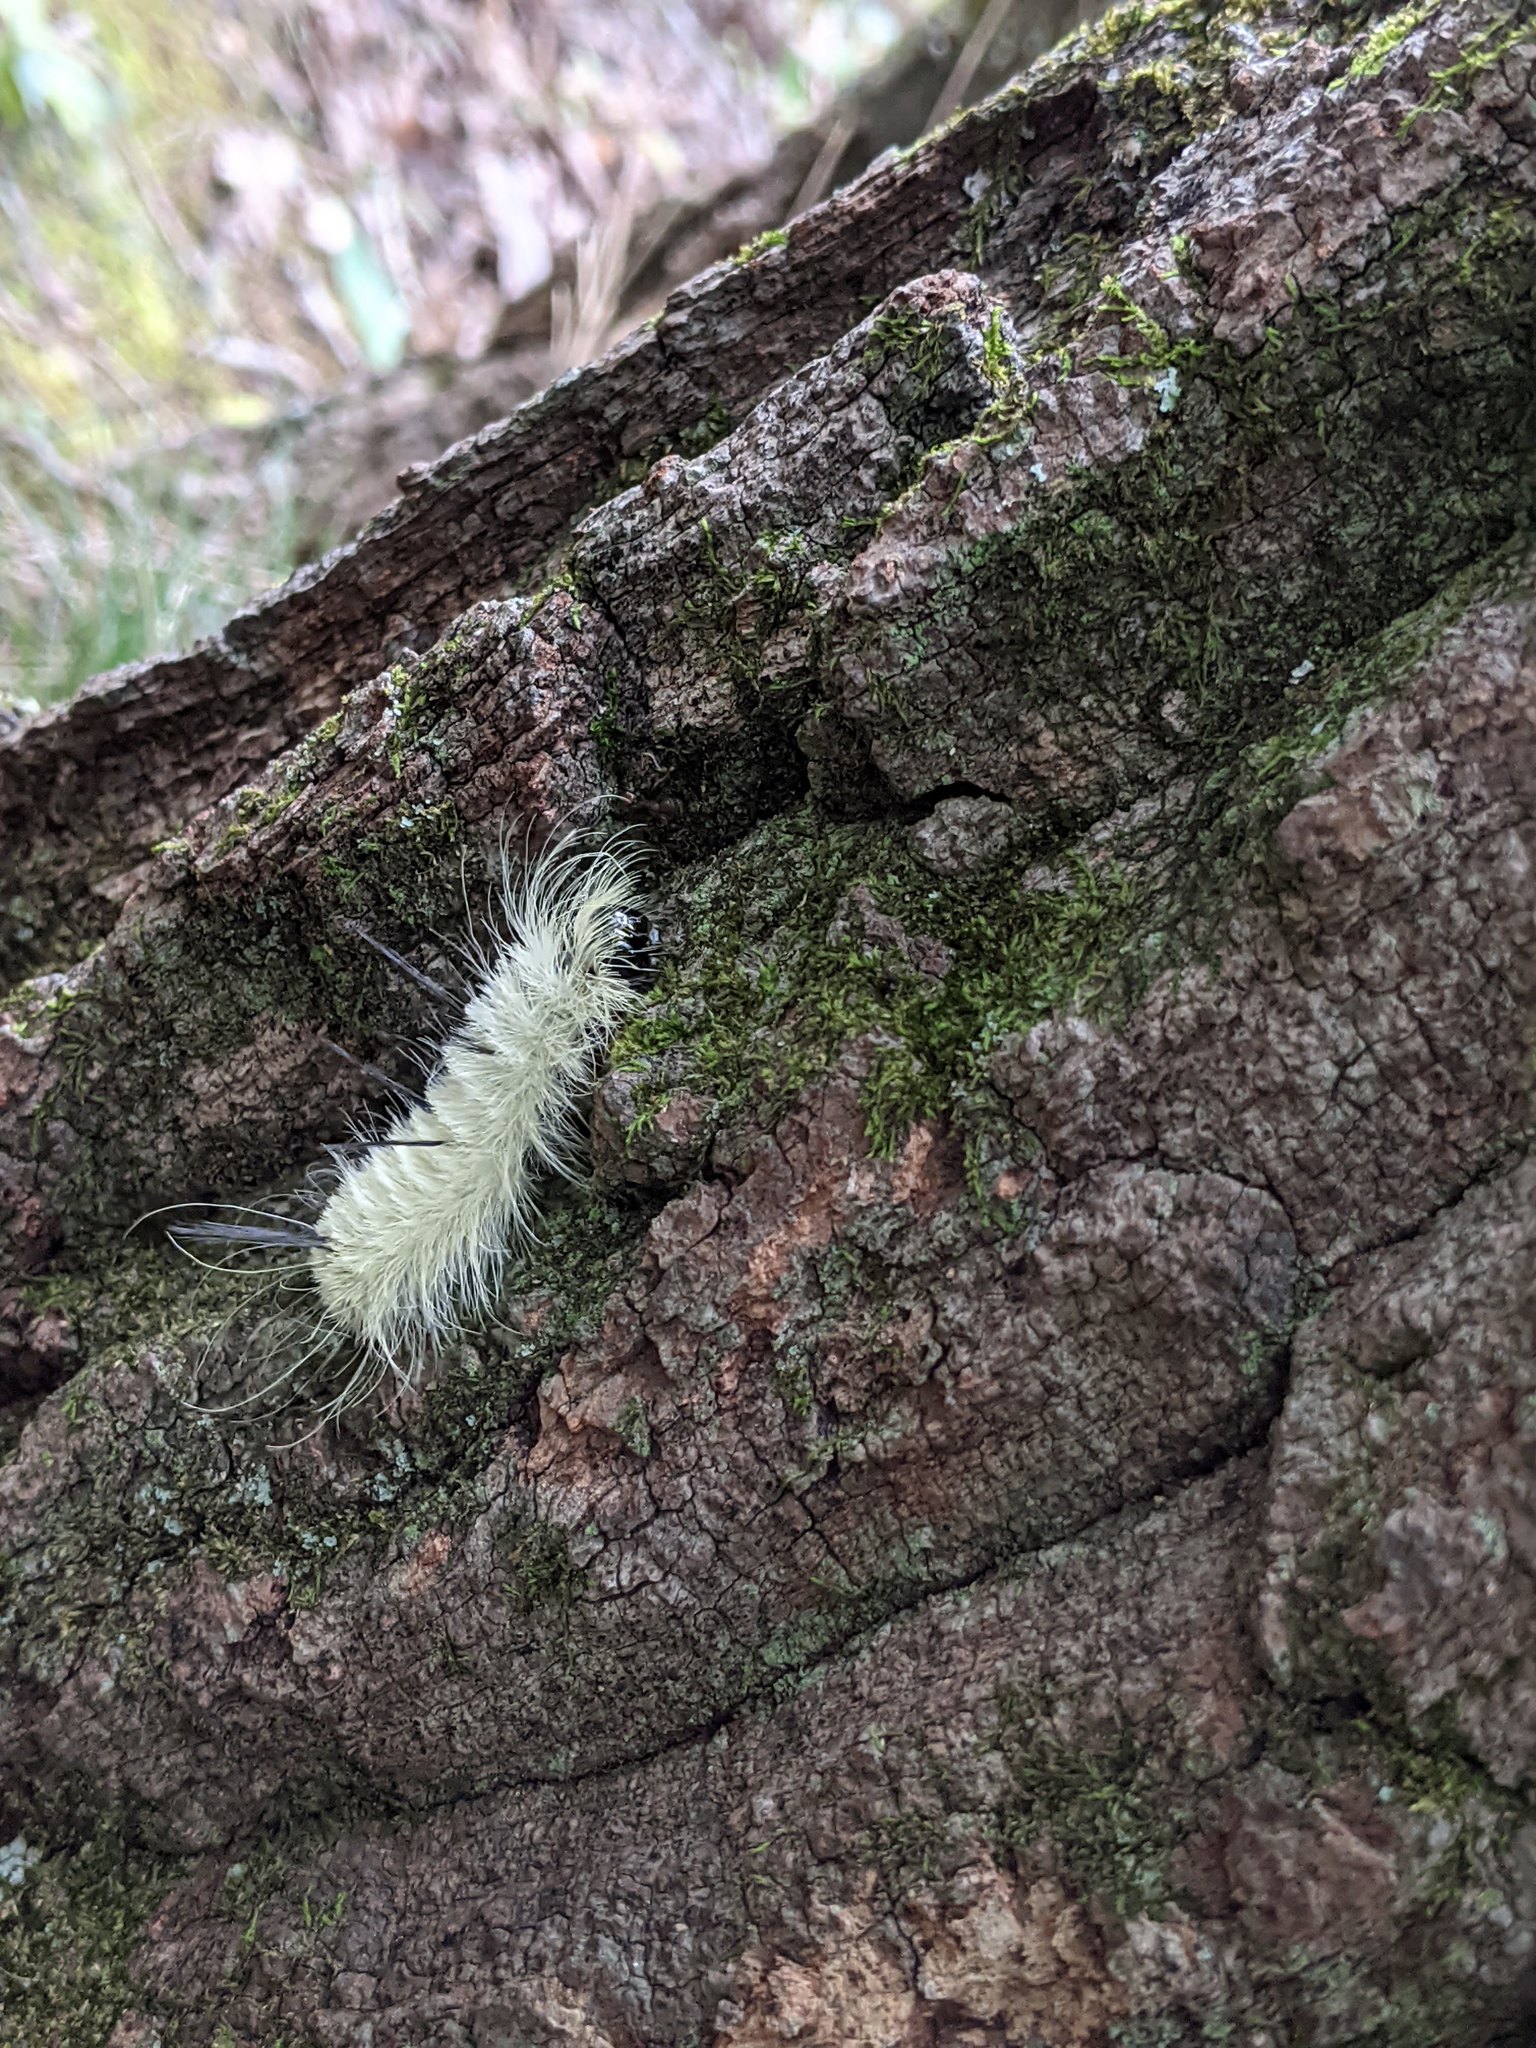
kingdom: Animalia
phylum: Arthropoda
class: Insecta
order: Lepidoptera
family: Noctuidae
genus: Acronicta
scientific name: Acronicta americana
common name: American dagger
